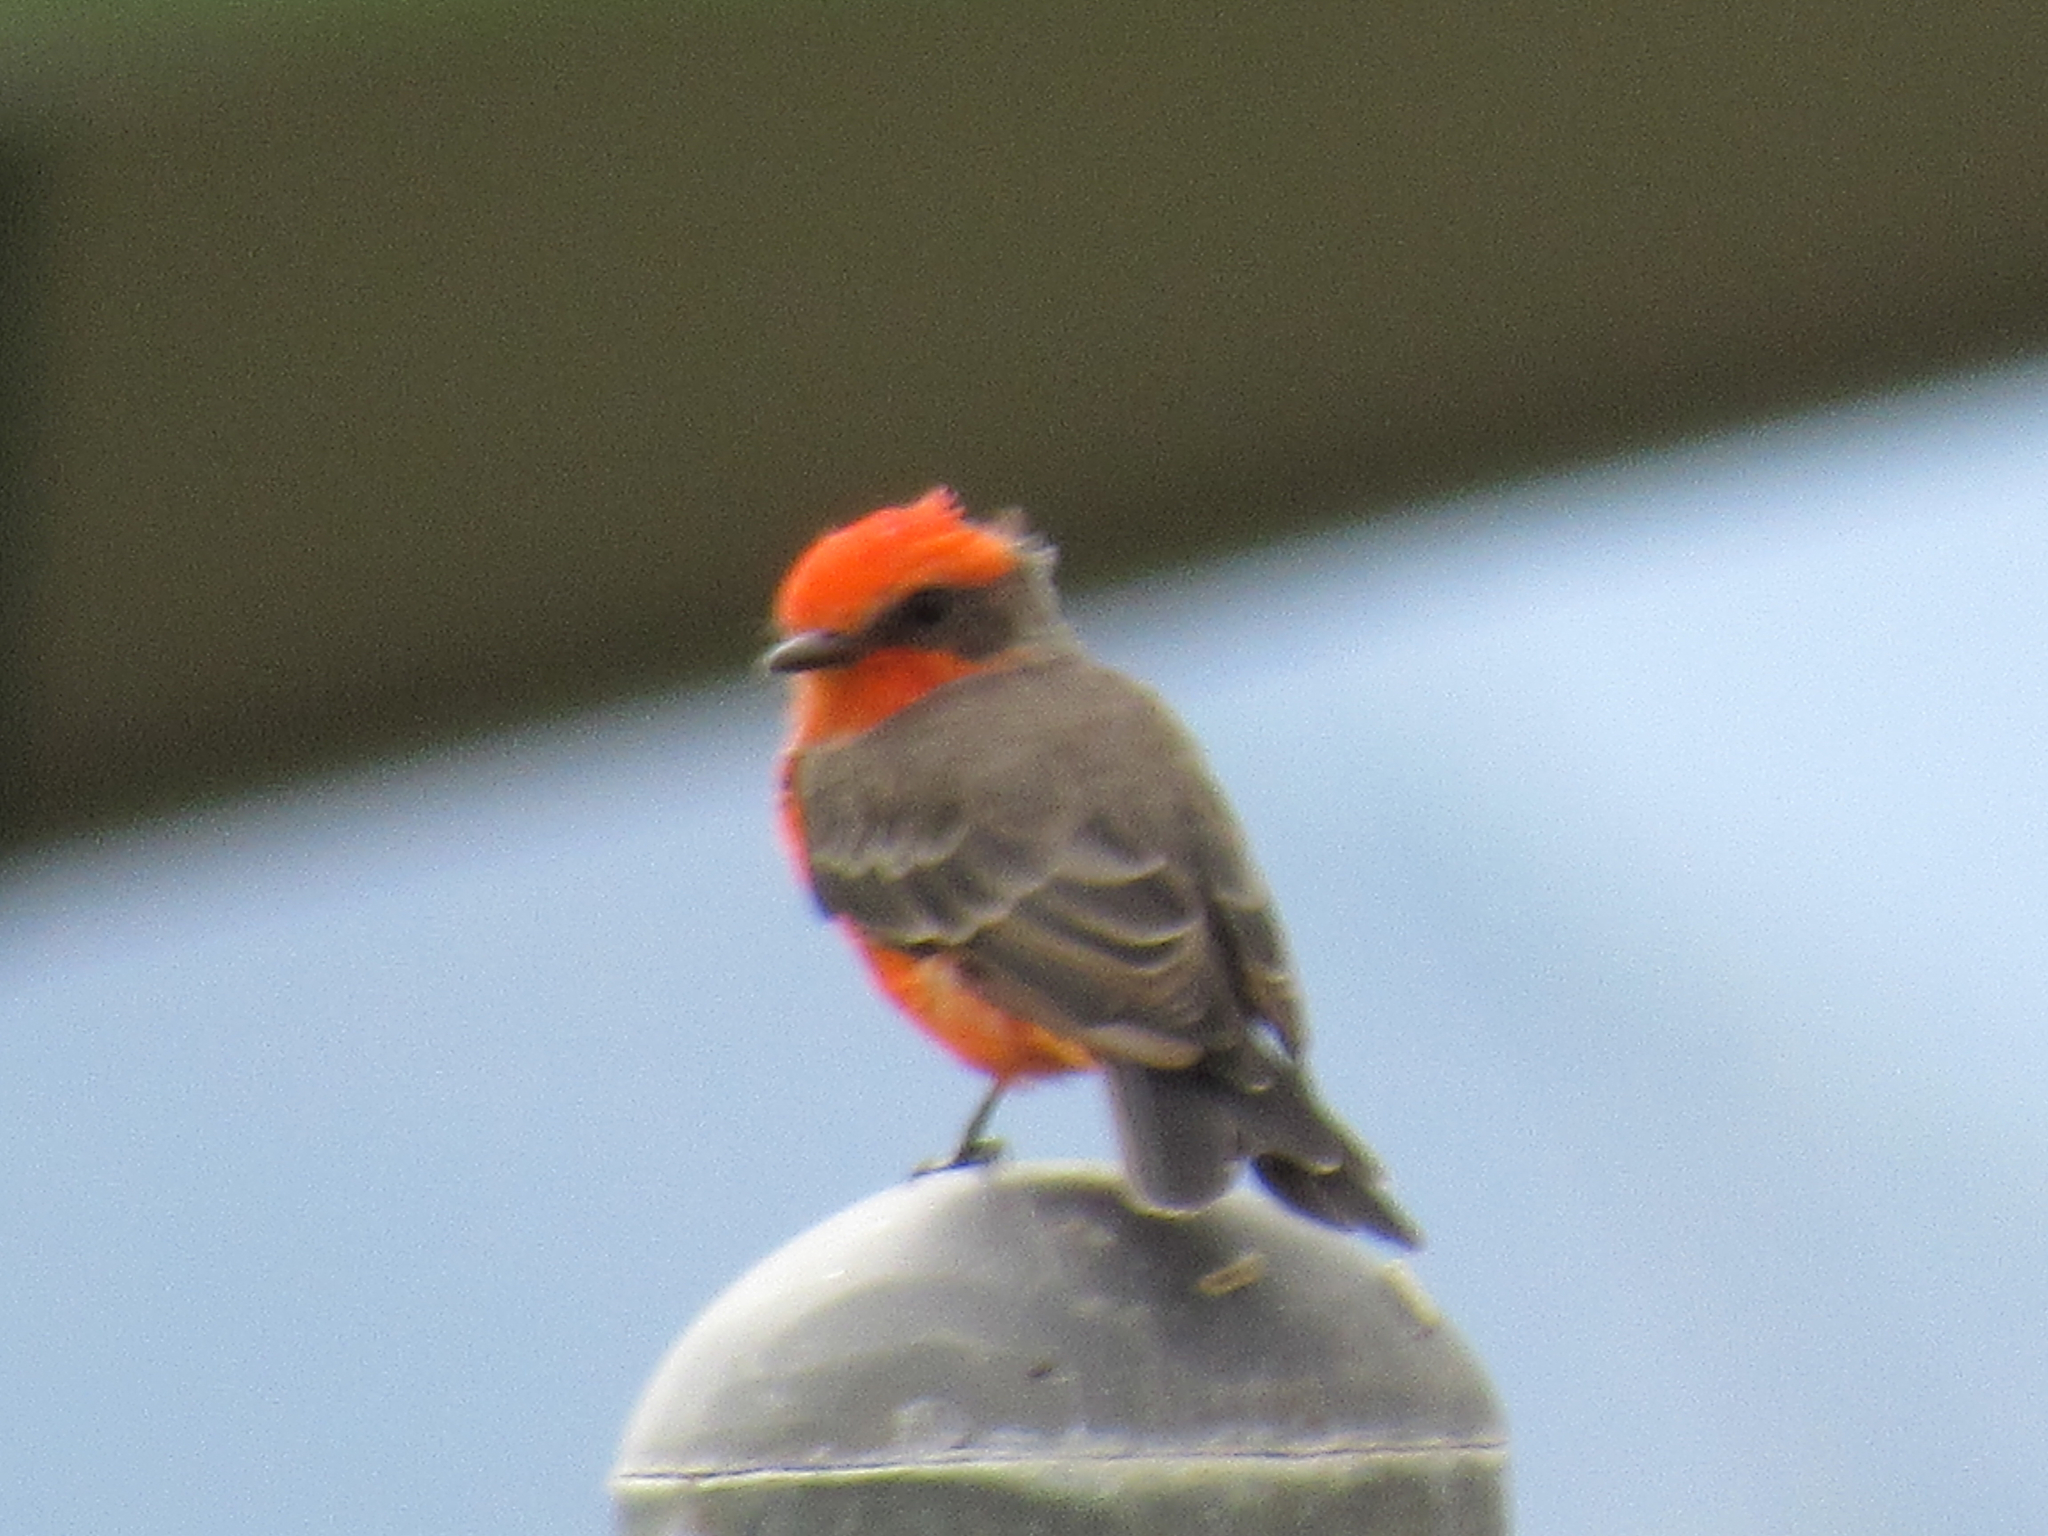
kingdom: Animalia
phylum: Chordata
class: Aves
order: Passeriformes
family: Tyrannidae
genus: Pyrocephalus
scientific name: Pyrocephalus rubinus
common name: Vermilion flycatcher
